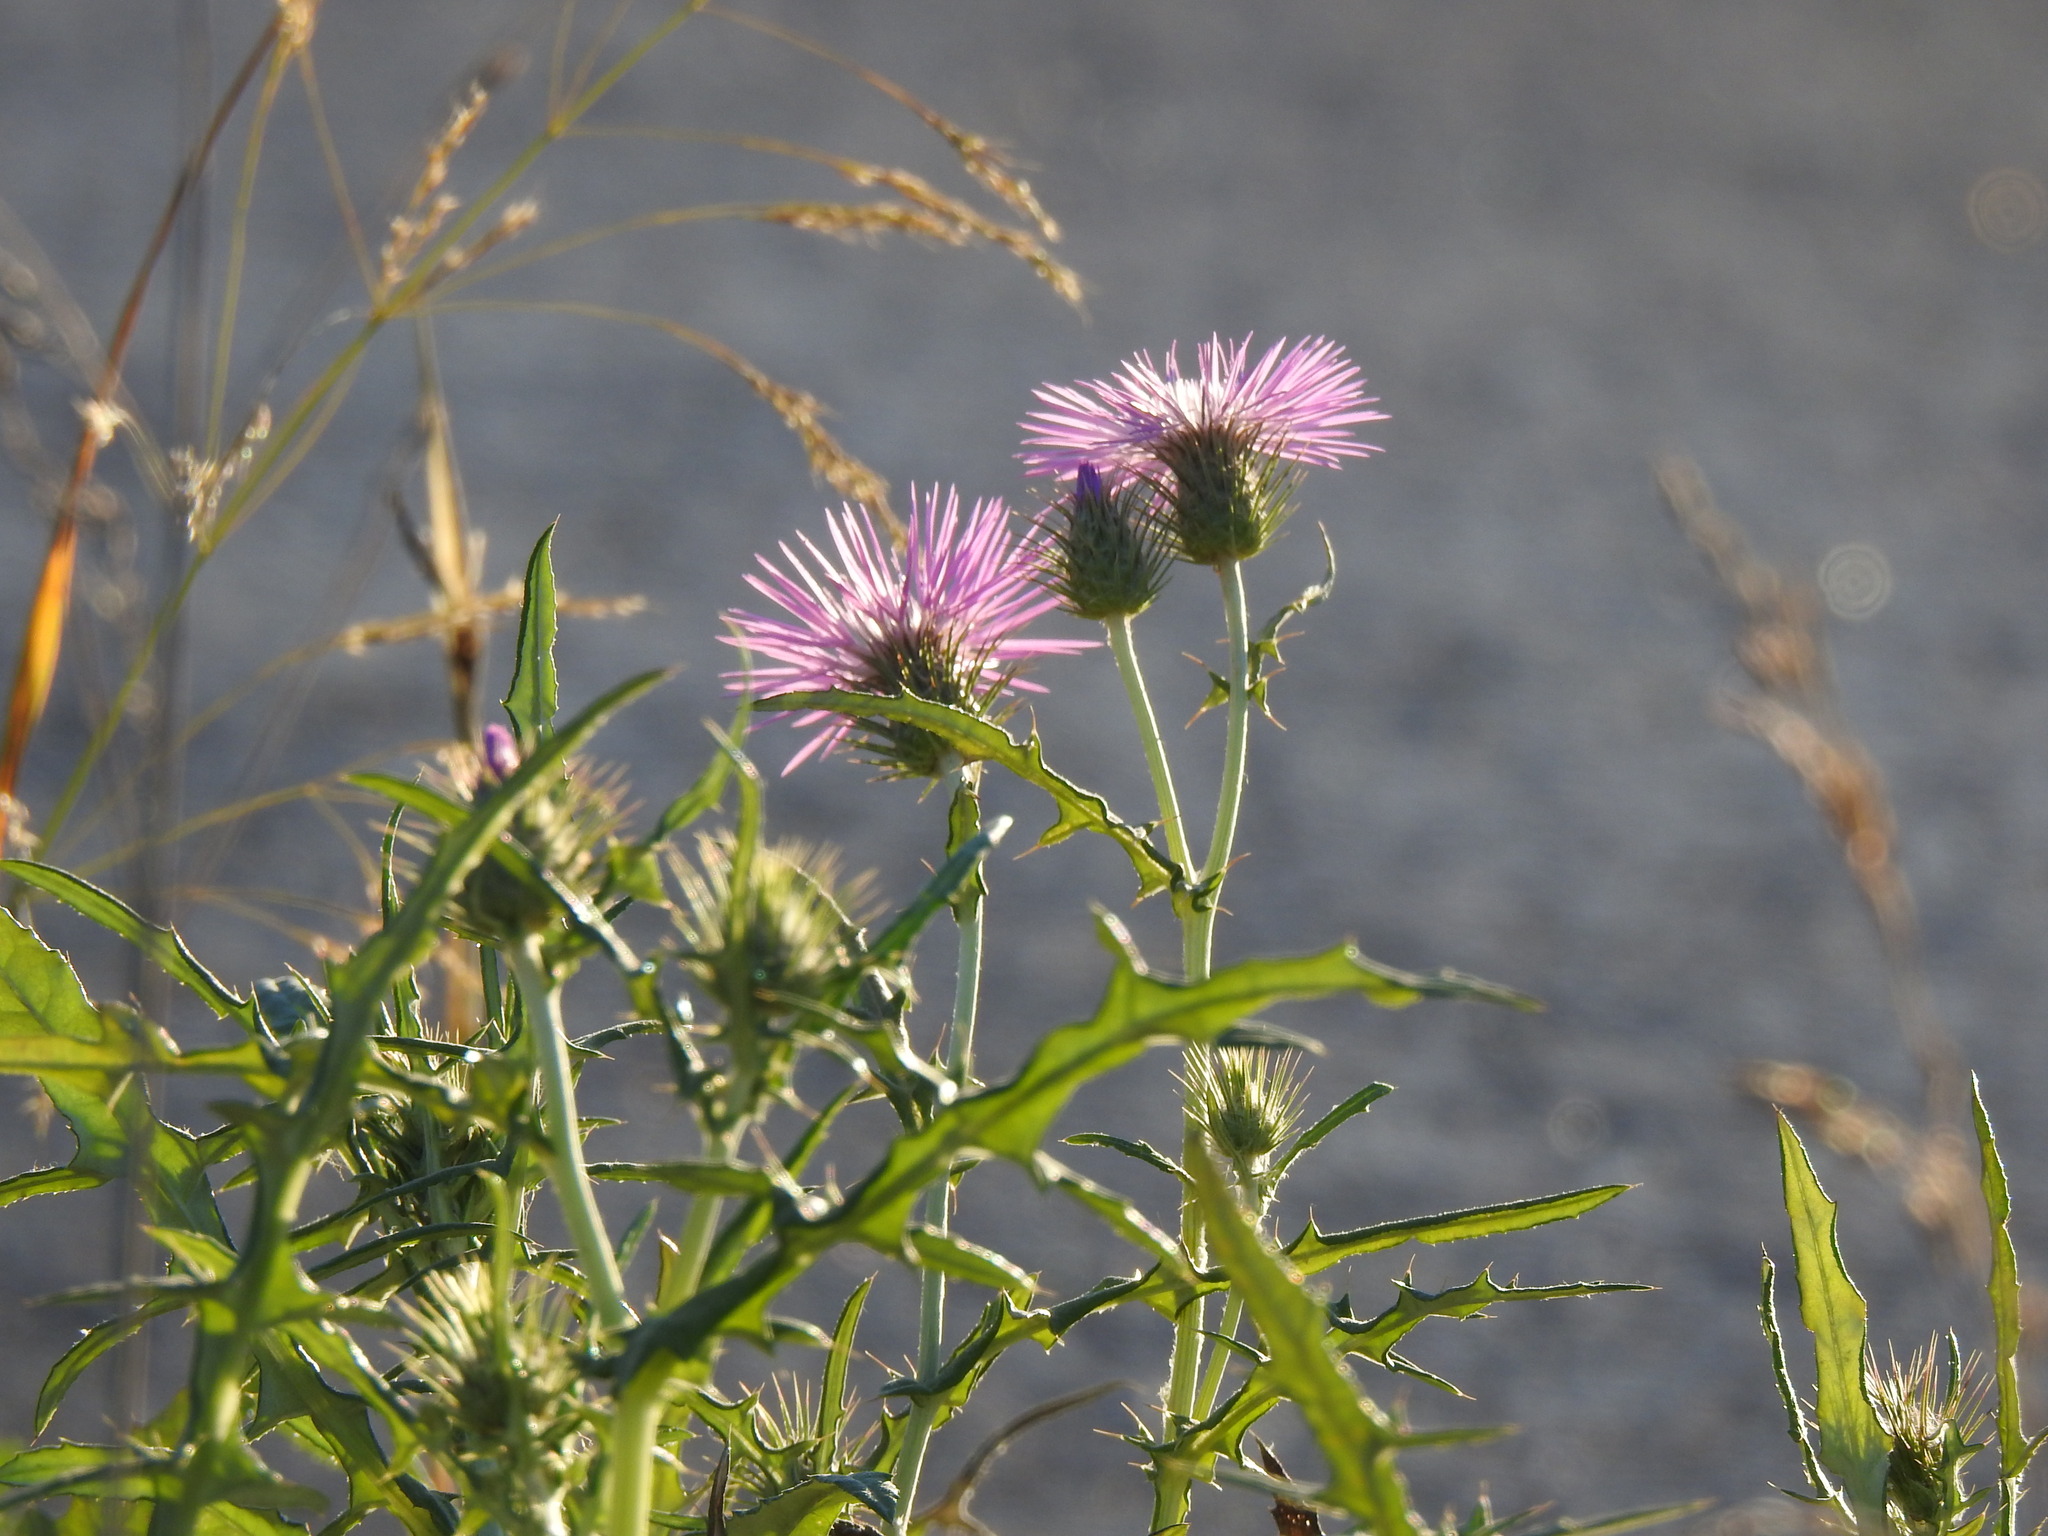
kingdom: Plantae
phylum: Tracheophyta
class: Magnoliopsida
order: Asterales
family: Asteraceae
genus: Galactites
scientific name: Galactites tomentosa
